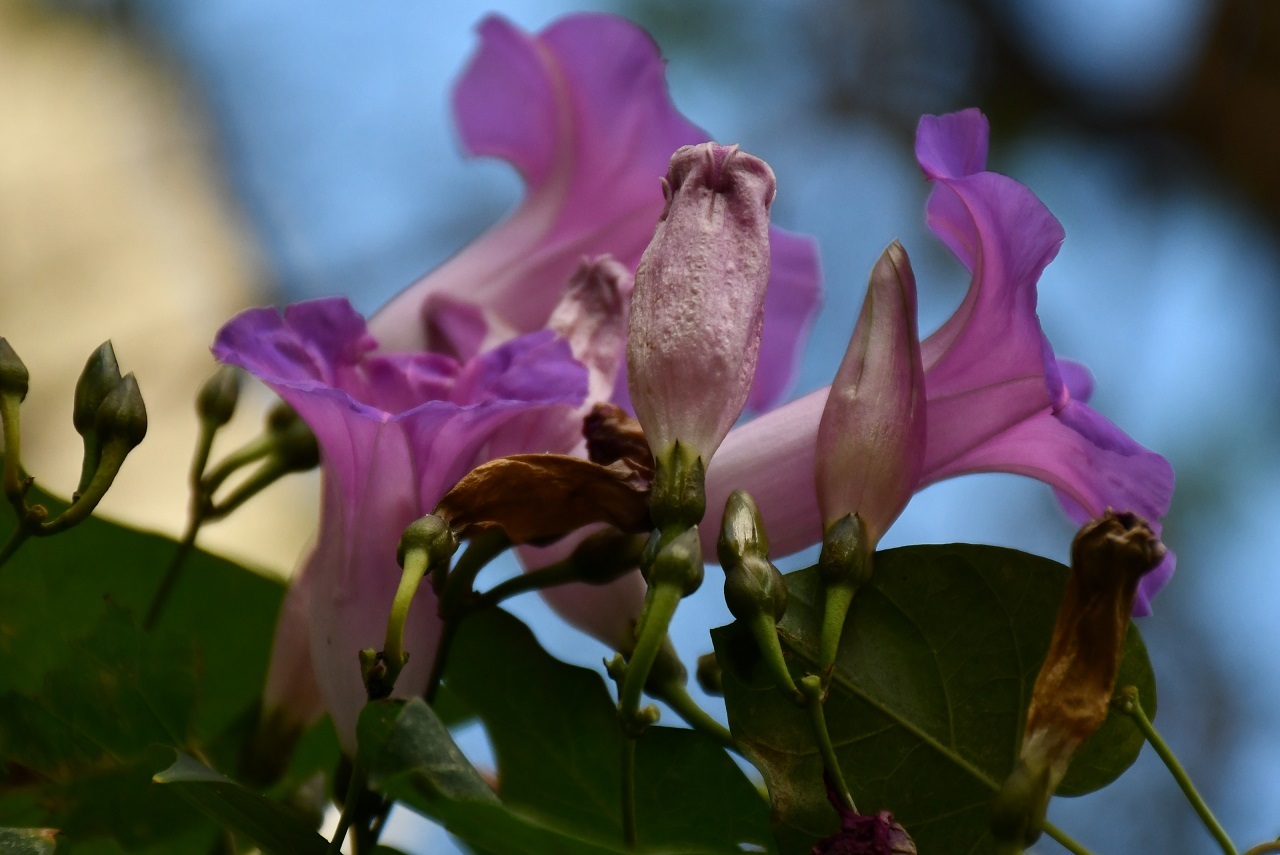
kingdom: Plantae
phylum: Tracheophyta
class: Magnoliopsida
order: Solanales
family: Convolvulaceae
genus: Ipomoea
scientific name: Ipomoea orizabensis
